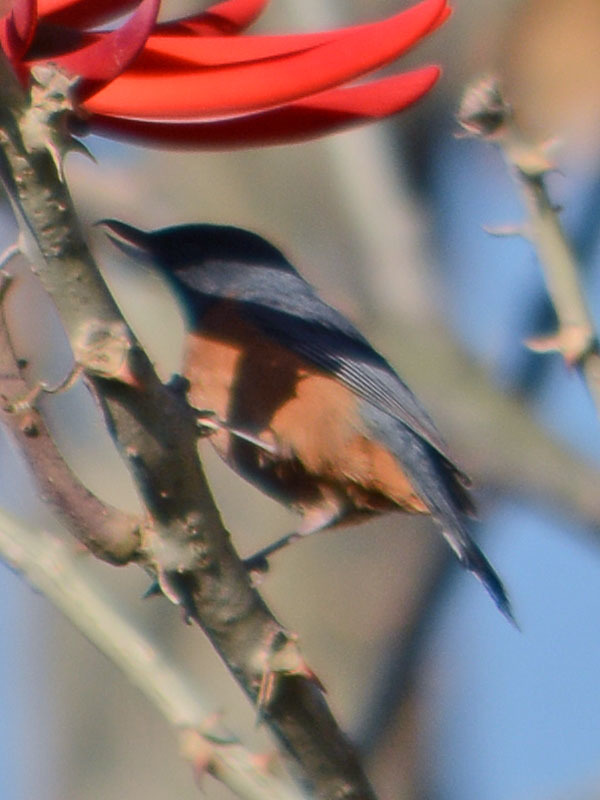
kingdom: Animalia
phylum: Chordata
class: Aves
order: Passeriformes
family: Thraupidae
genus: Diglossa
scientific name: Diglossa baritula
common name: Cinnamon-bellied flowerpiercer
